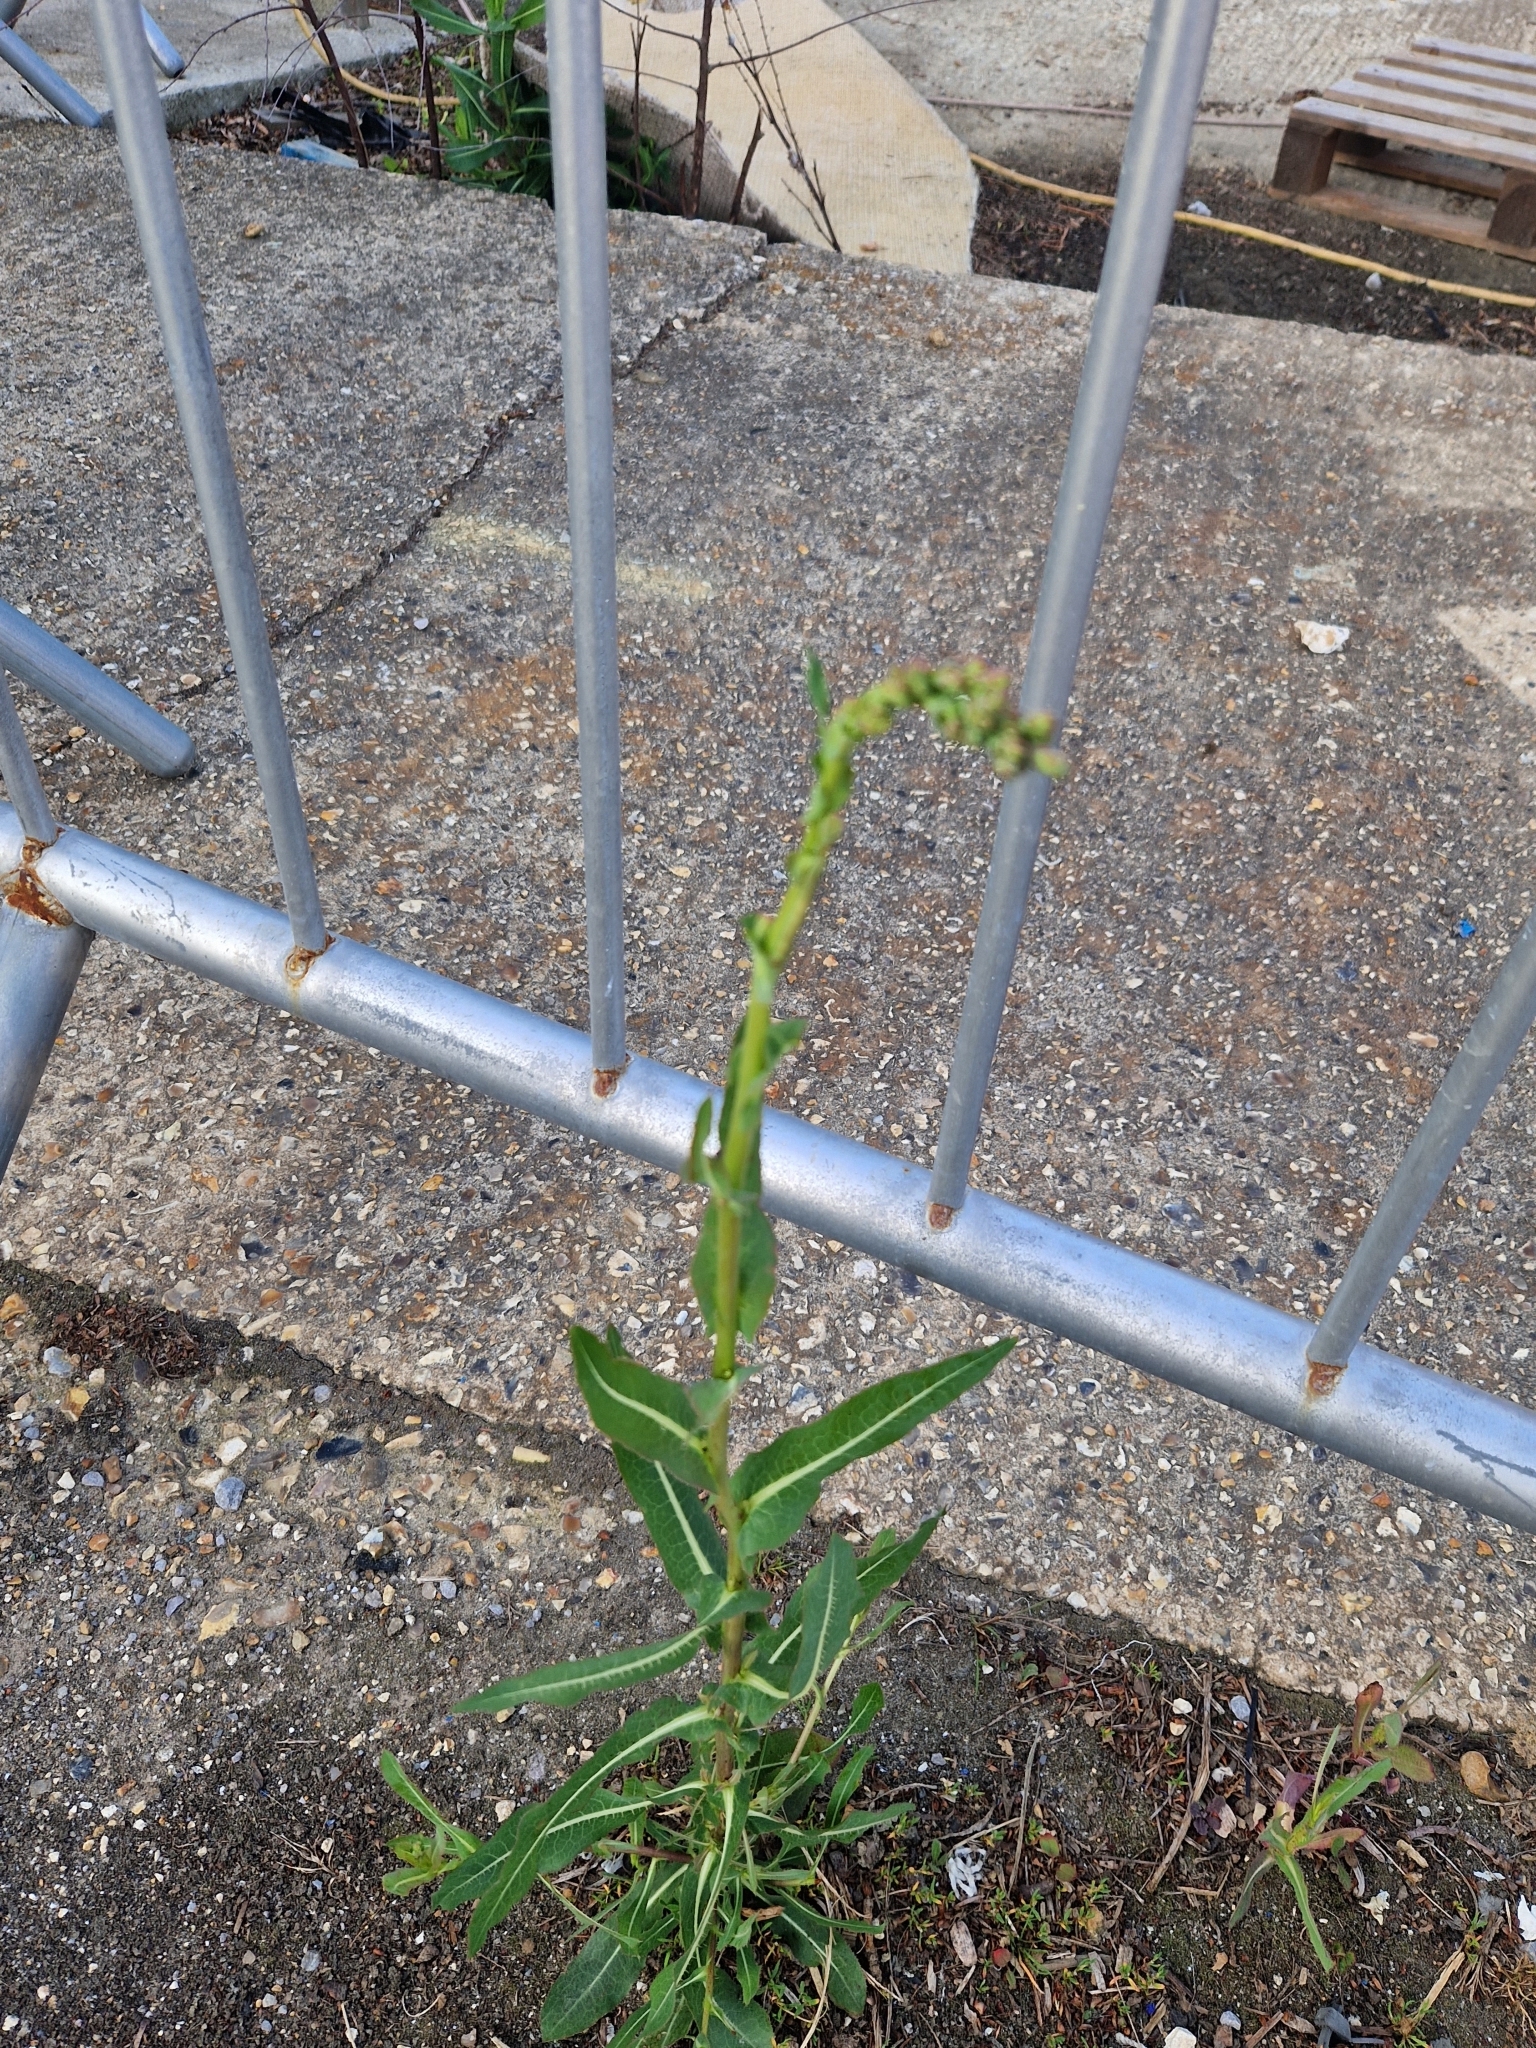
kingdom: Plantae
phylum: Tracheophyta
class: Magnoliopsida
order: Asterales
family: Asteraceae
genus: Lactuca
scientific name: Lactuca serriola
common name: Prickly lettuce
